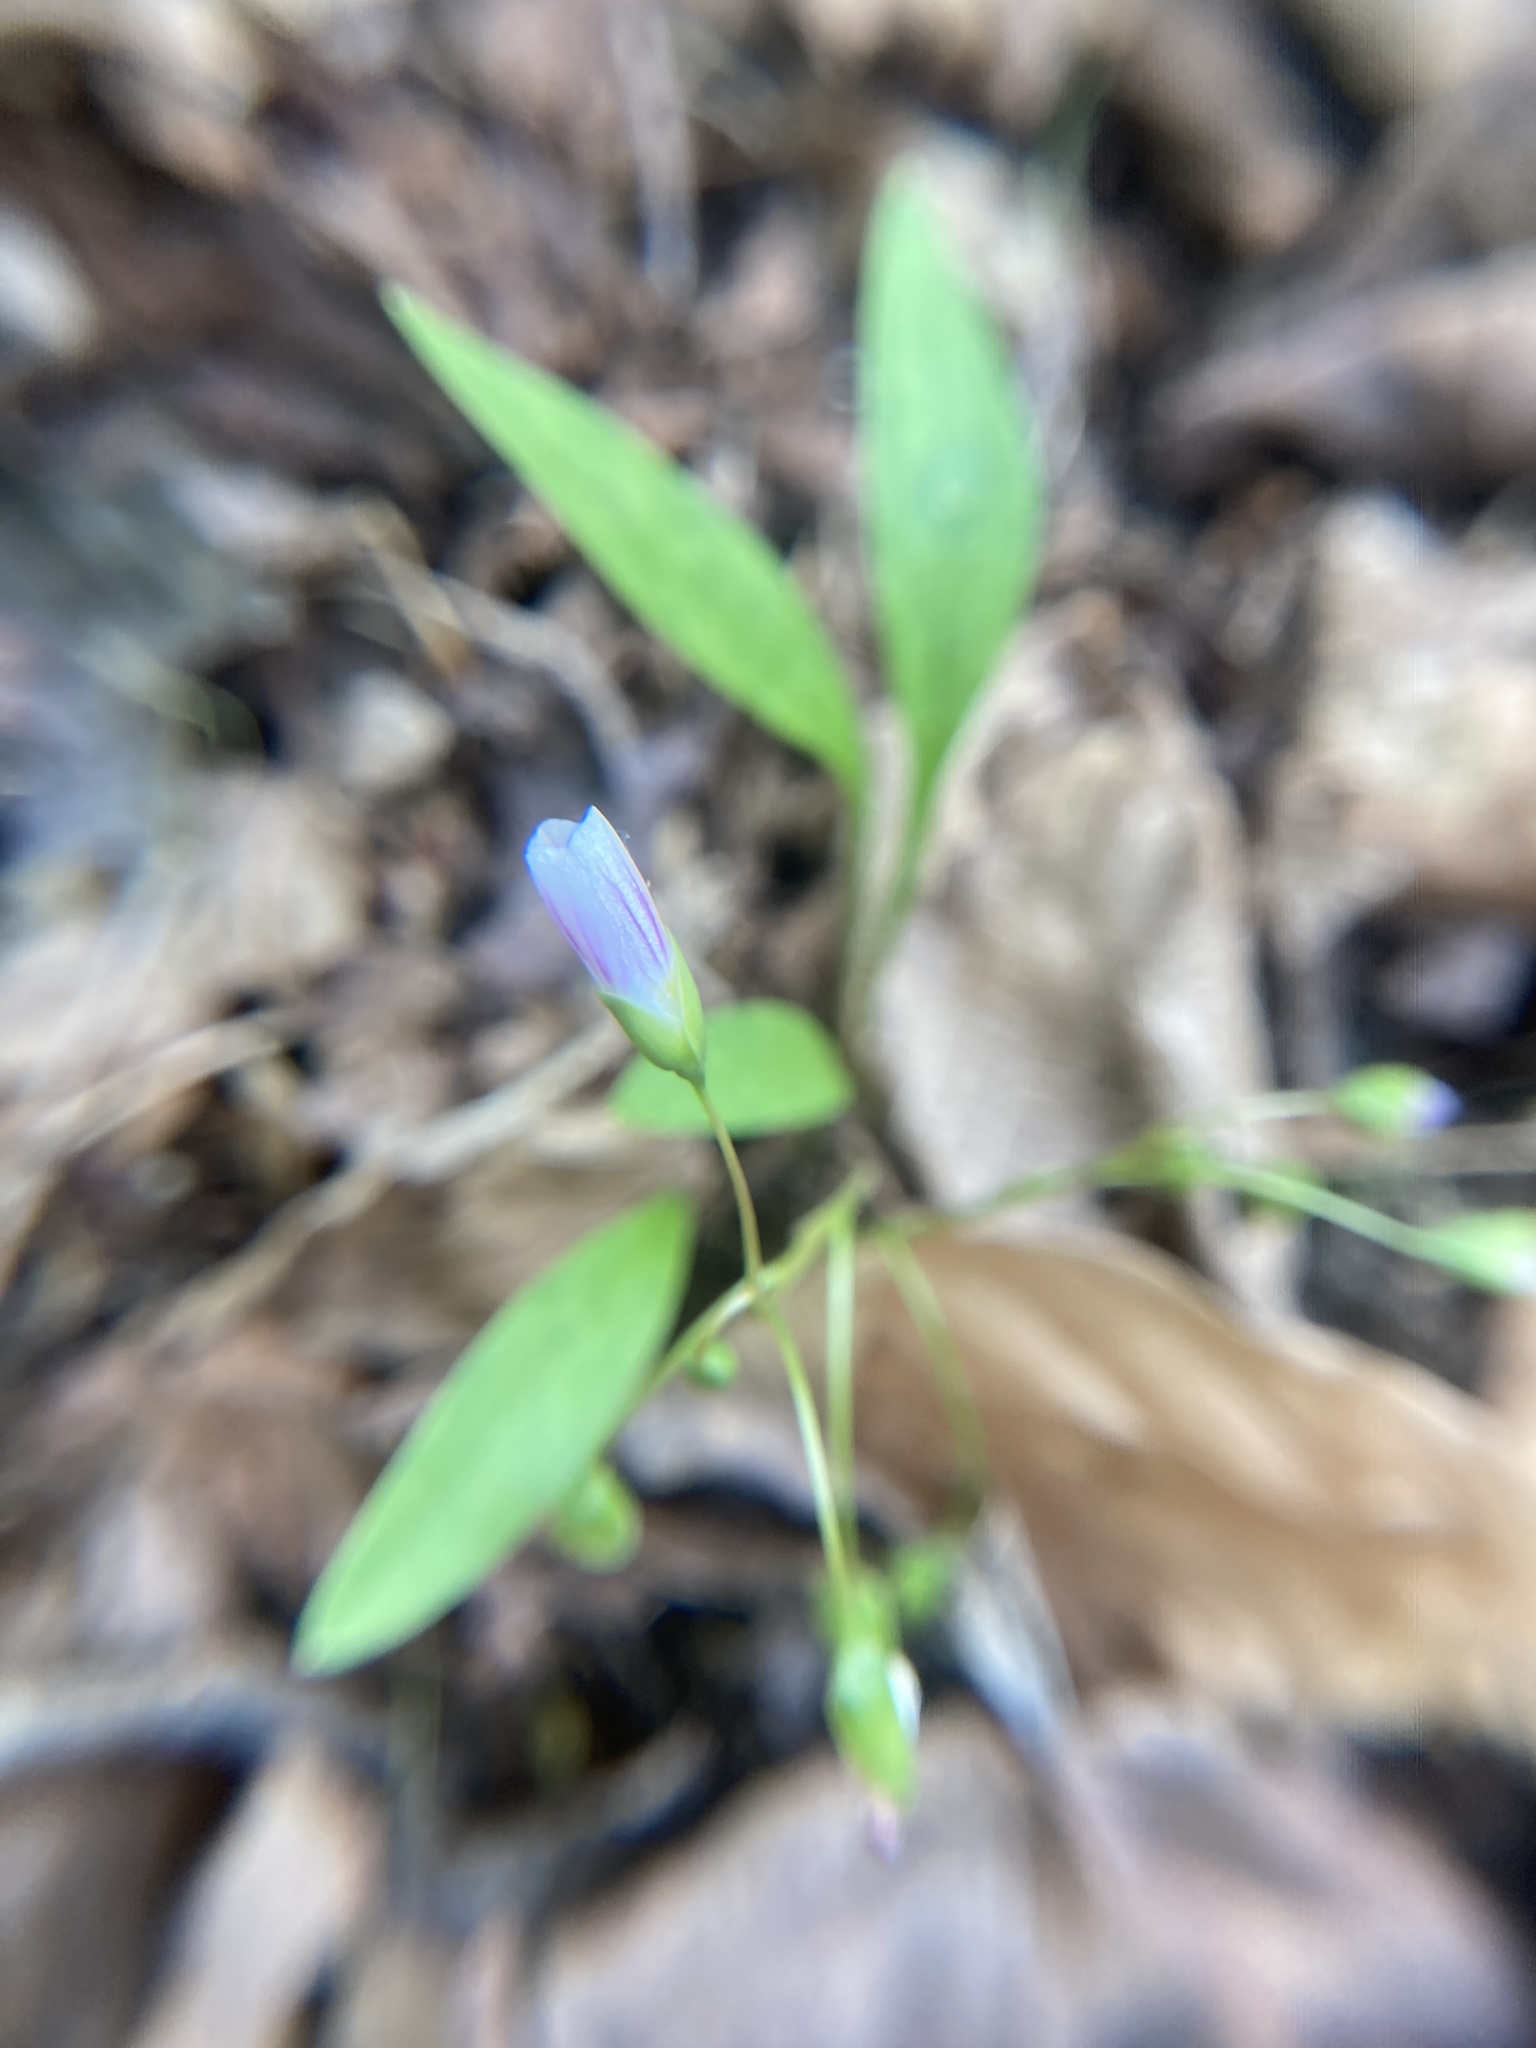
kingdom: Plantae
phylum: Tracheophyta
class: Magnoliopsida
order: Caryophyllales
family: Montiaceae
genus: Claytonia
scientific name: Claytonia caroliniana
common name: Carolina spring beauty
